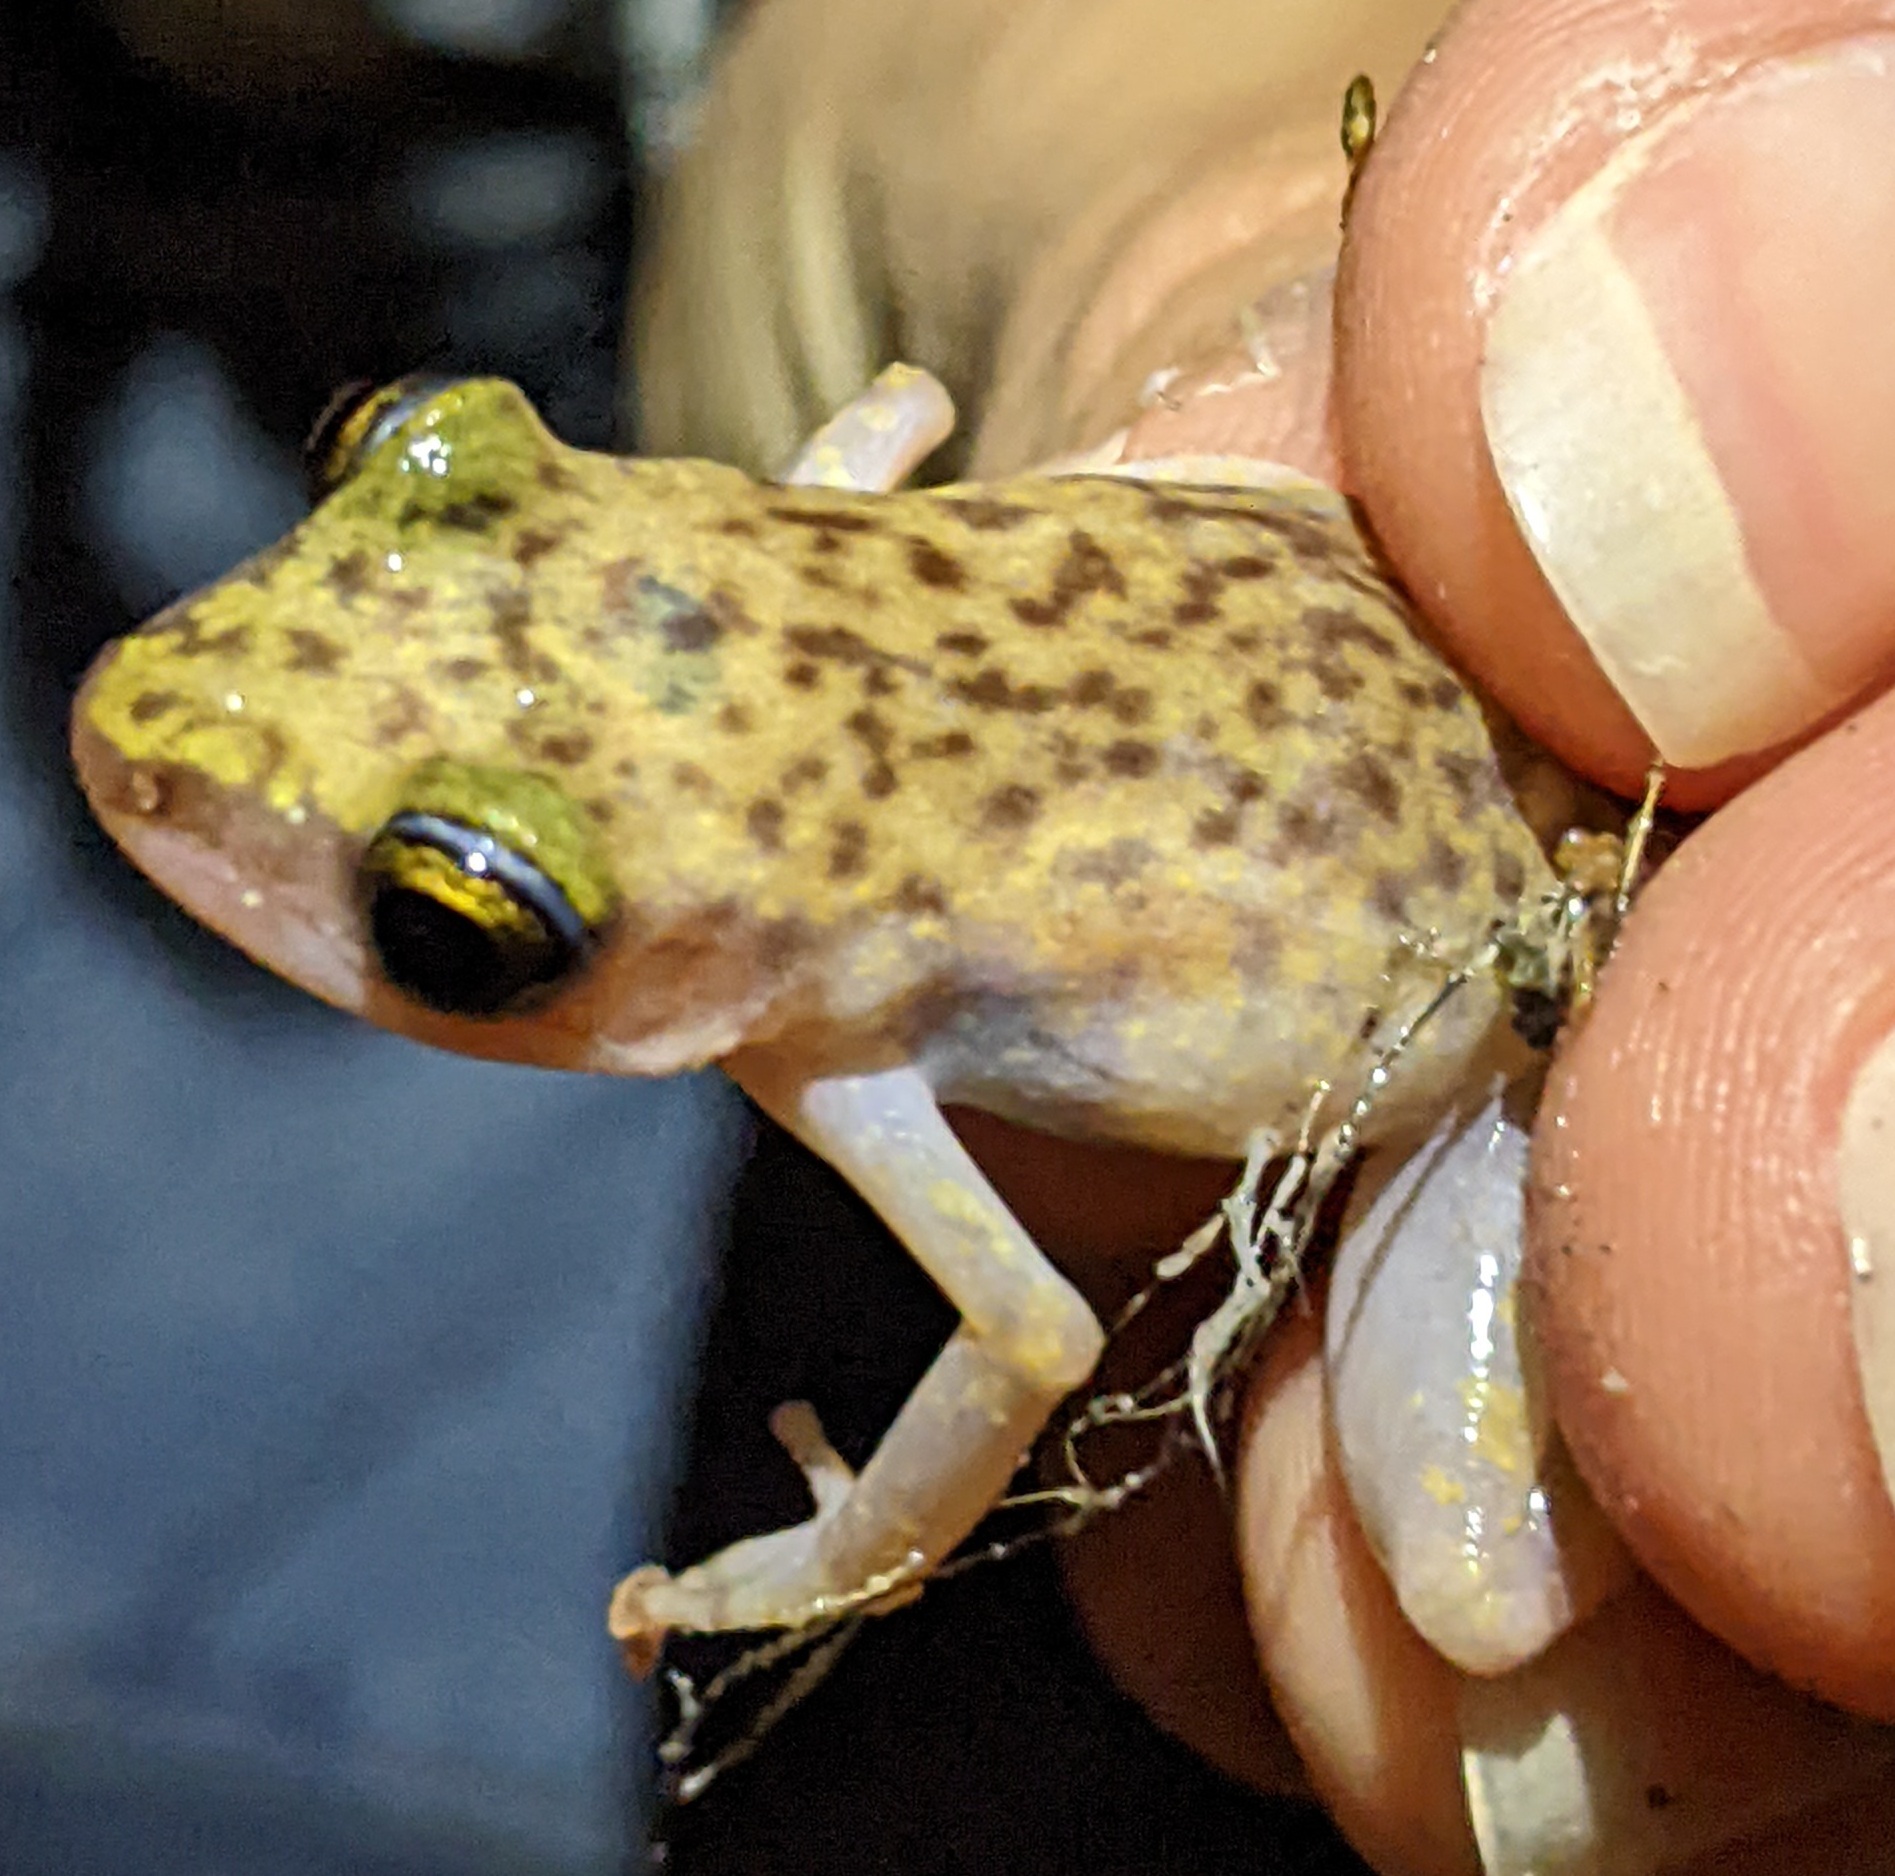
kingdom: Animalia
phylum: Chordata
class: Amphibia
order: Anura
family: Eleutherodactylidae
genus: Eleutherodactylus
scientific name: Eleutherodactylus marnockii
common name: Cliff chirping frog
